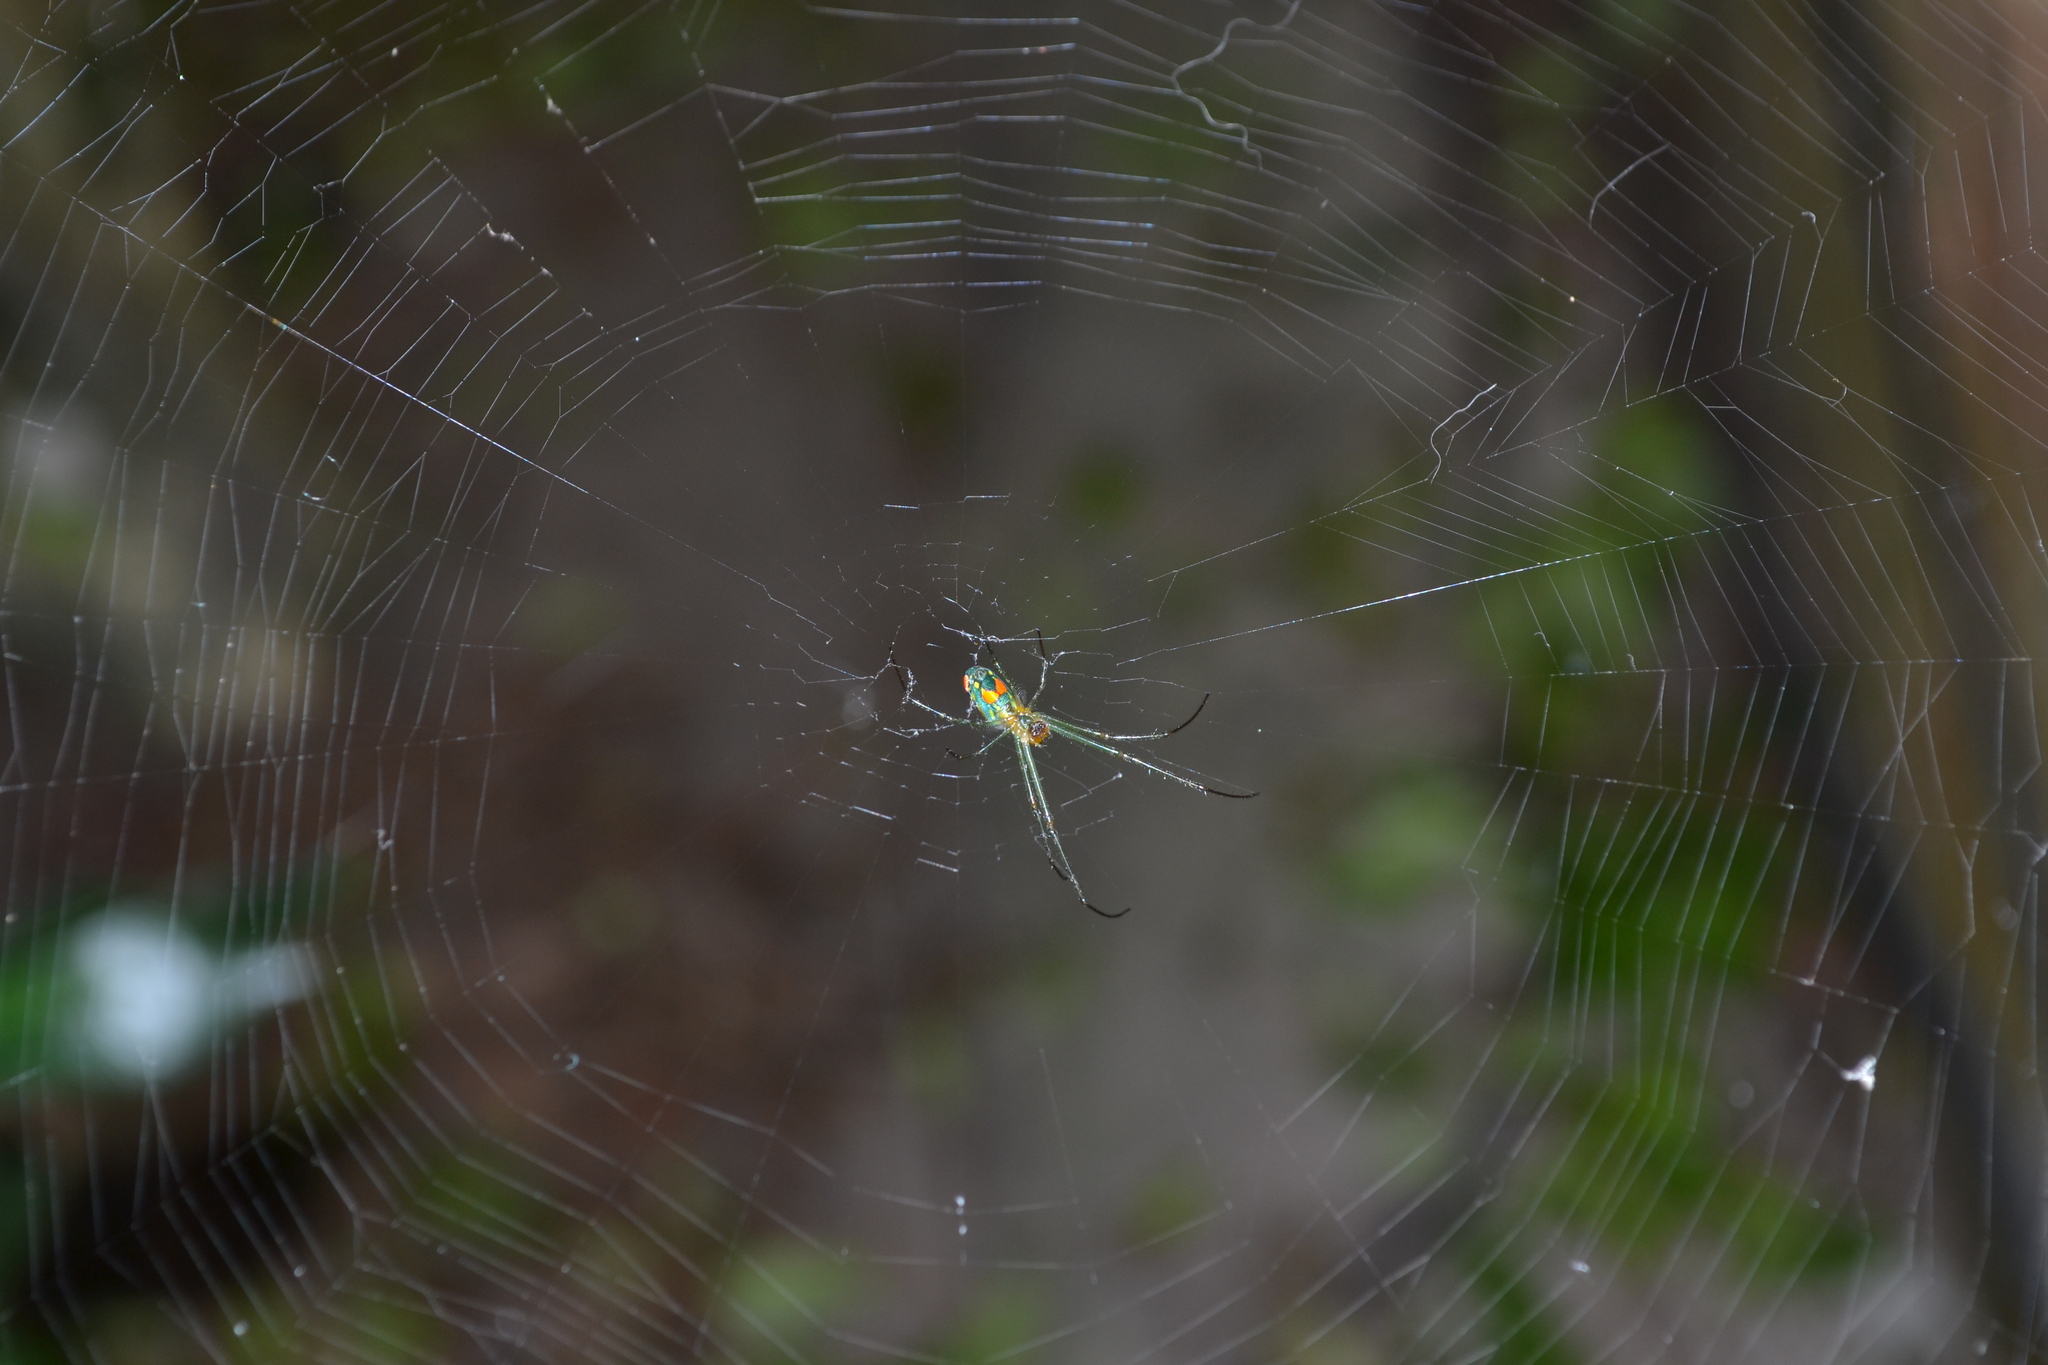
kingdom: Animalia
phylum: Arthropoda
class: Arachnida
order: Araneae
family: Tetragnathidae
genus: Leucauge
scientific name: Leucauge argyrobapta
